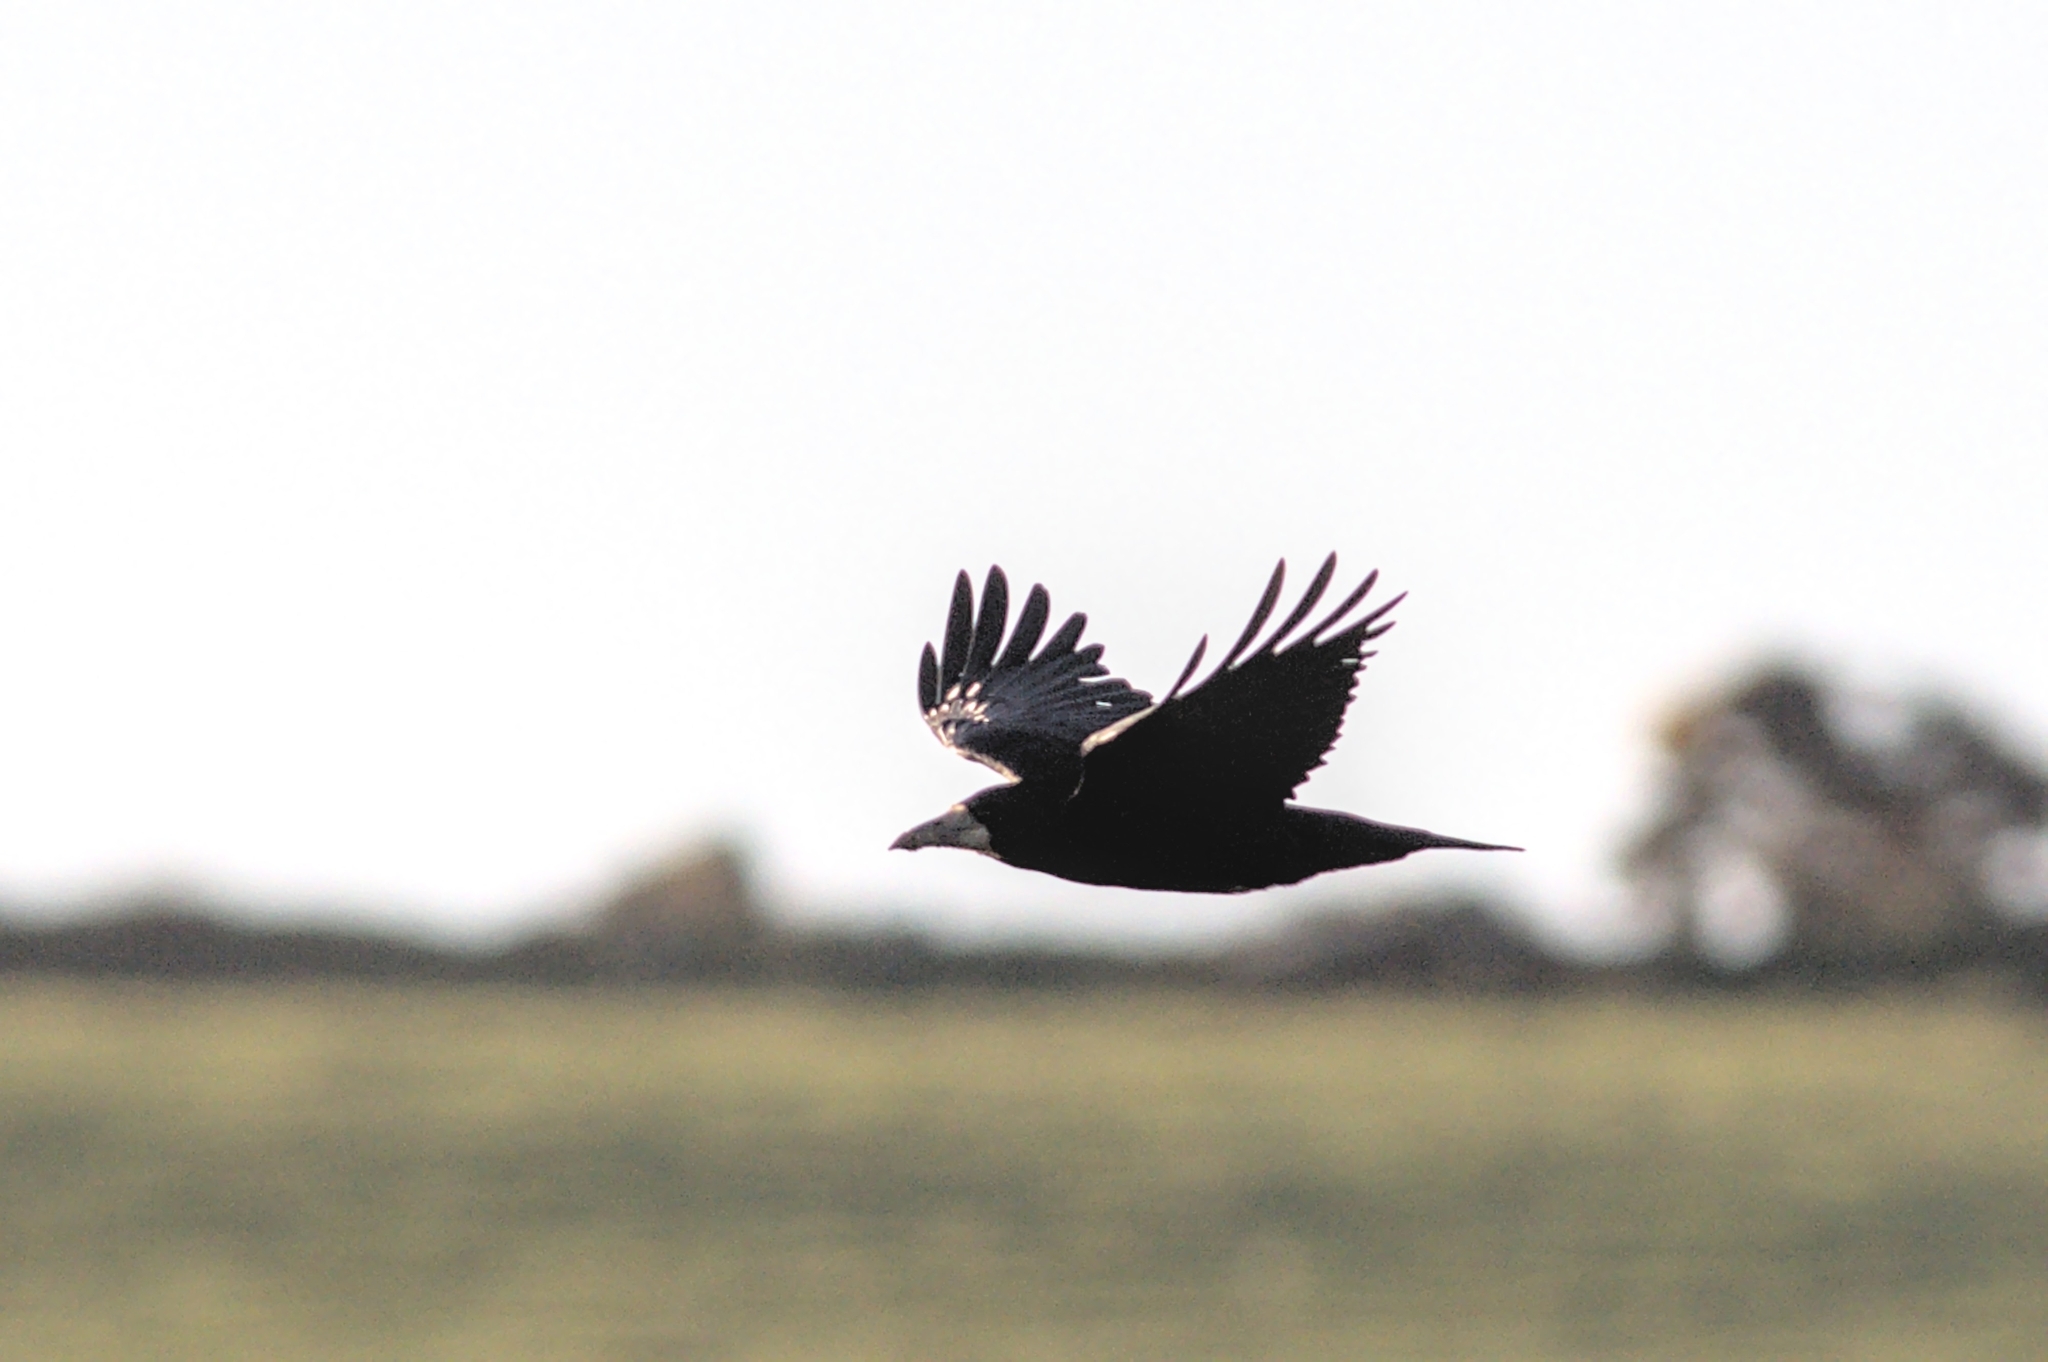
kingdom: Animalia
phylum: Chordata
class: Aves
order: Passeriformes
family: Corvidae
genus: Corvus
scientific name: Corvus frugilegus
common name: Rook
